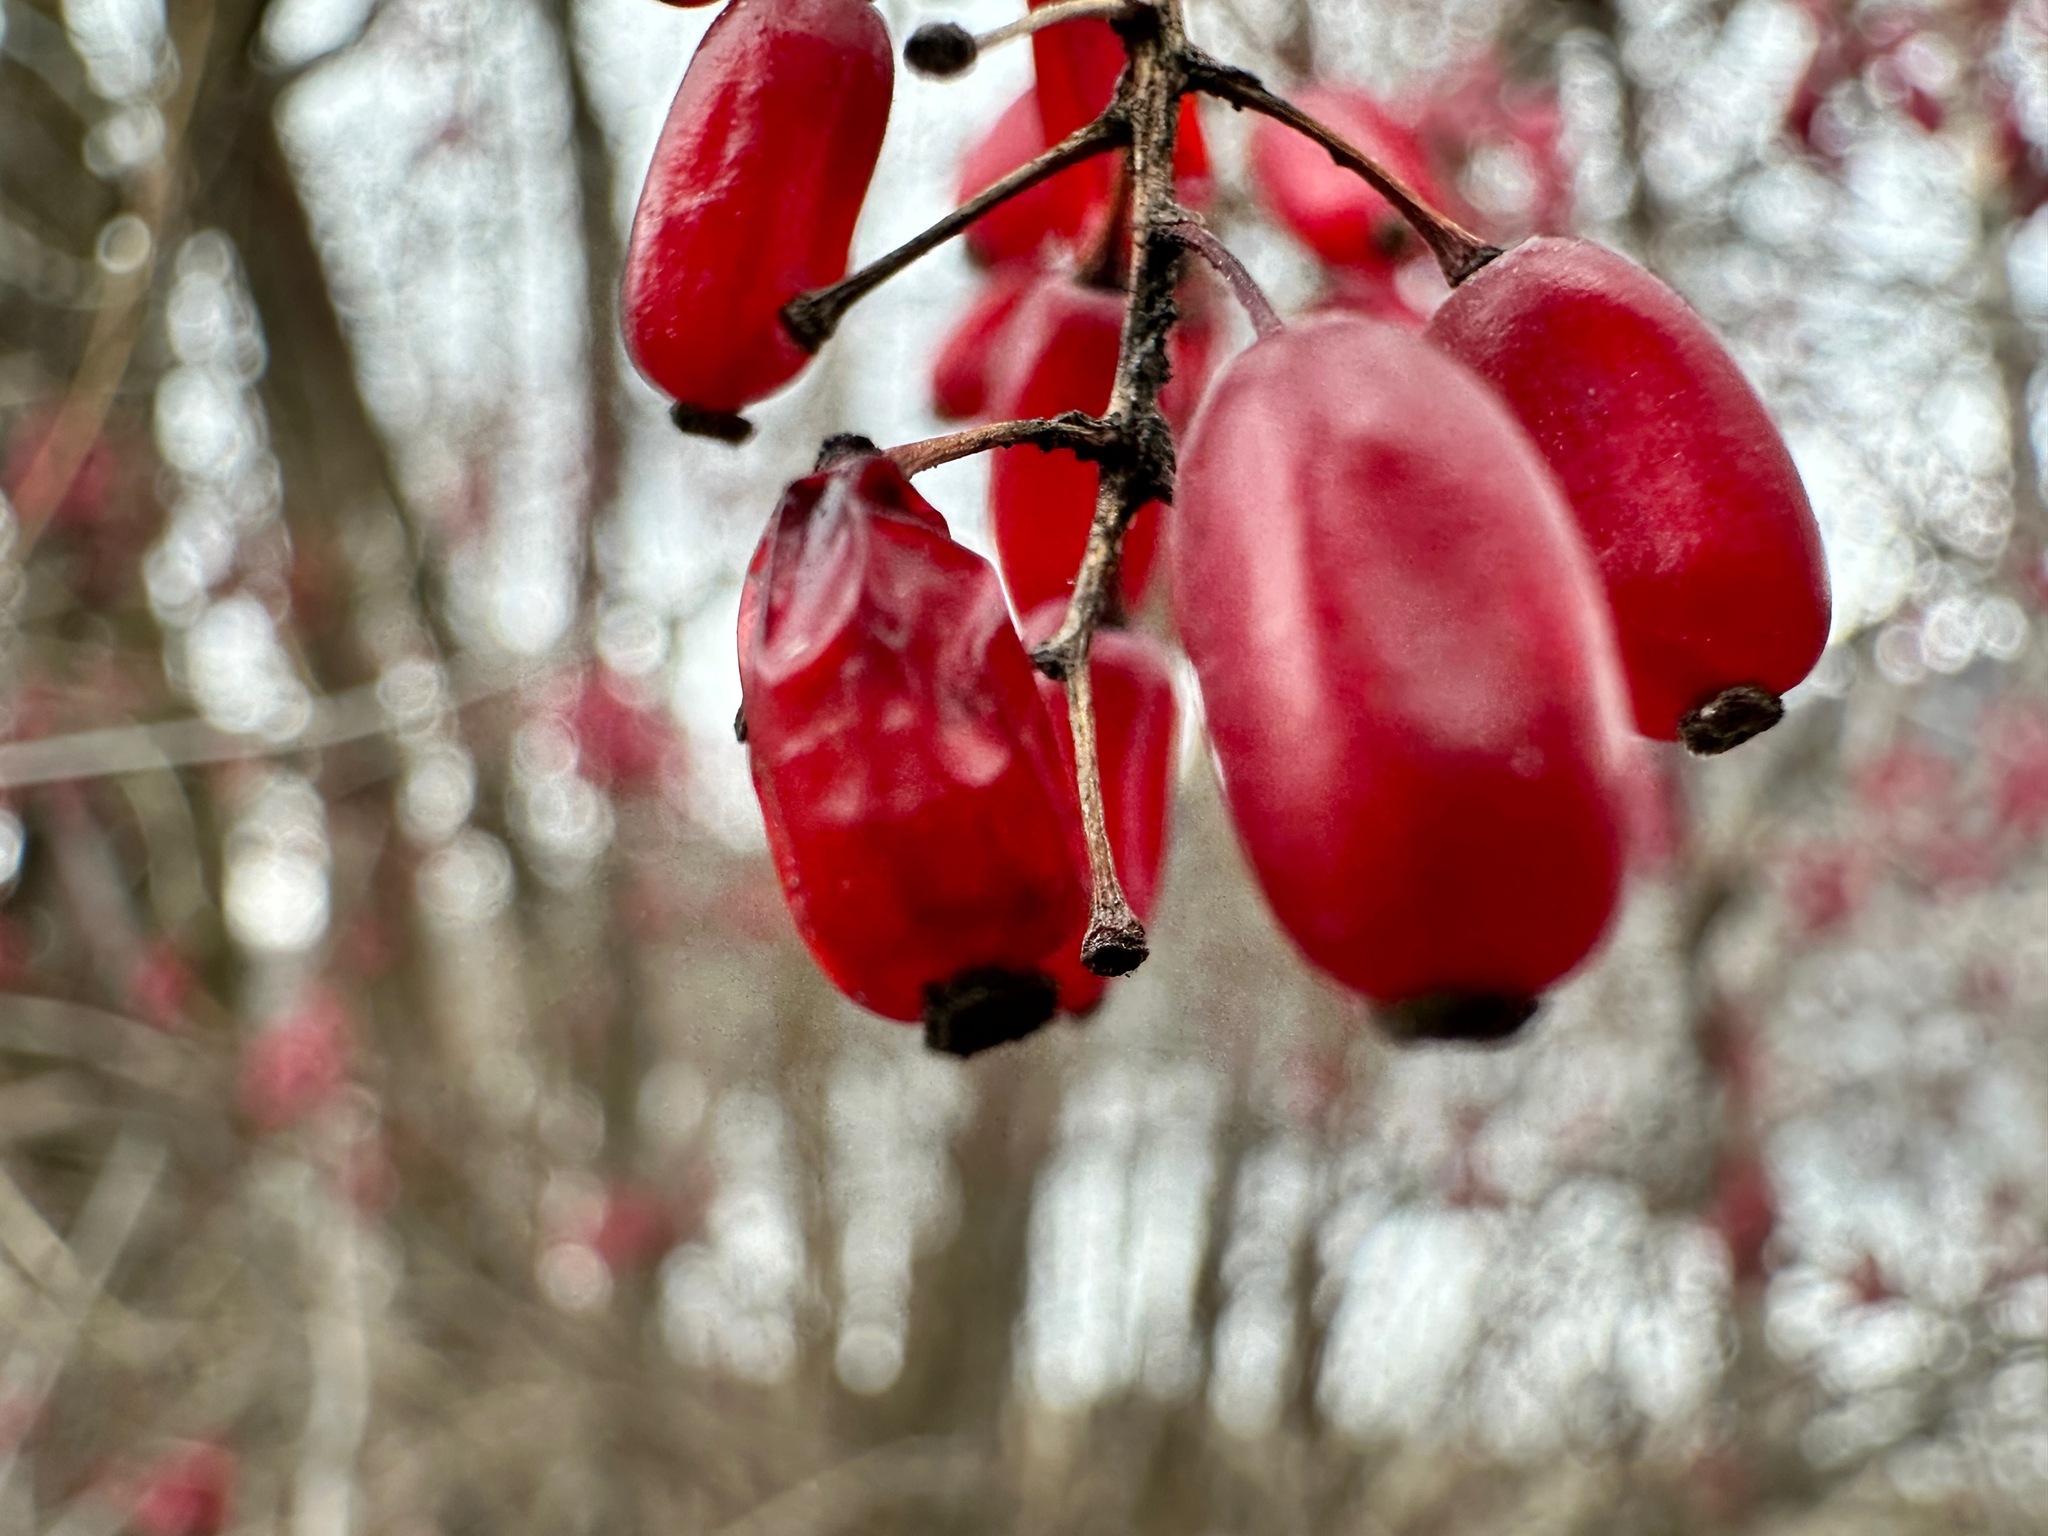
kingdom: Plantae
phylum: Tracheophyta
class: Magnoliopsida
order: Ranunculales
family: Berberidaceae
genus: Berberis
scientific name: Berberis vulgaris
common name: Barberry
